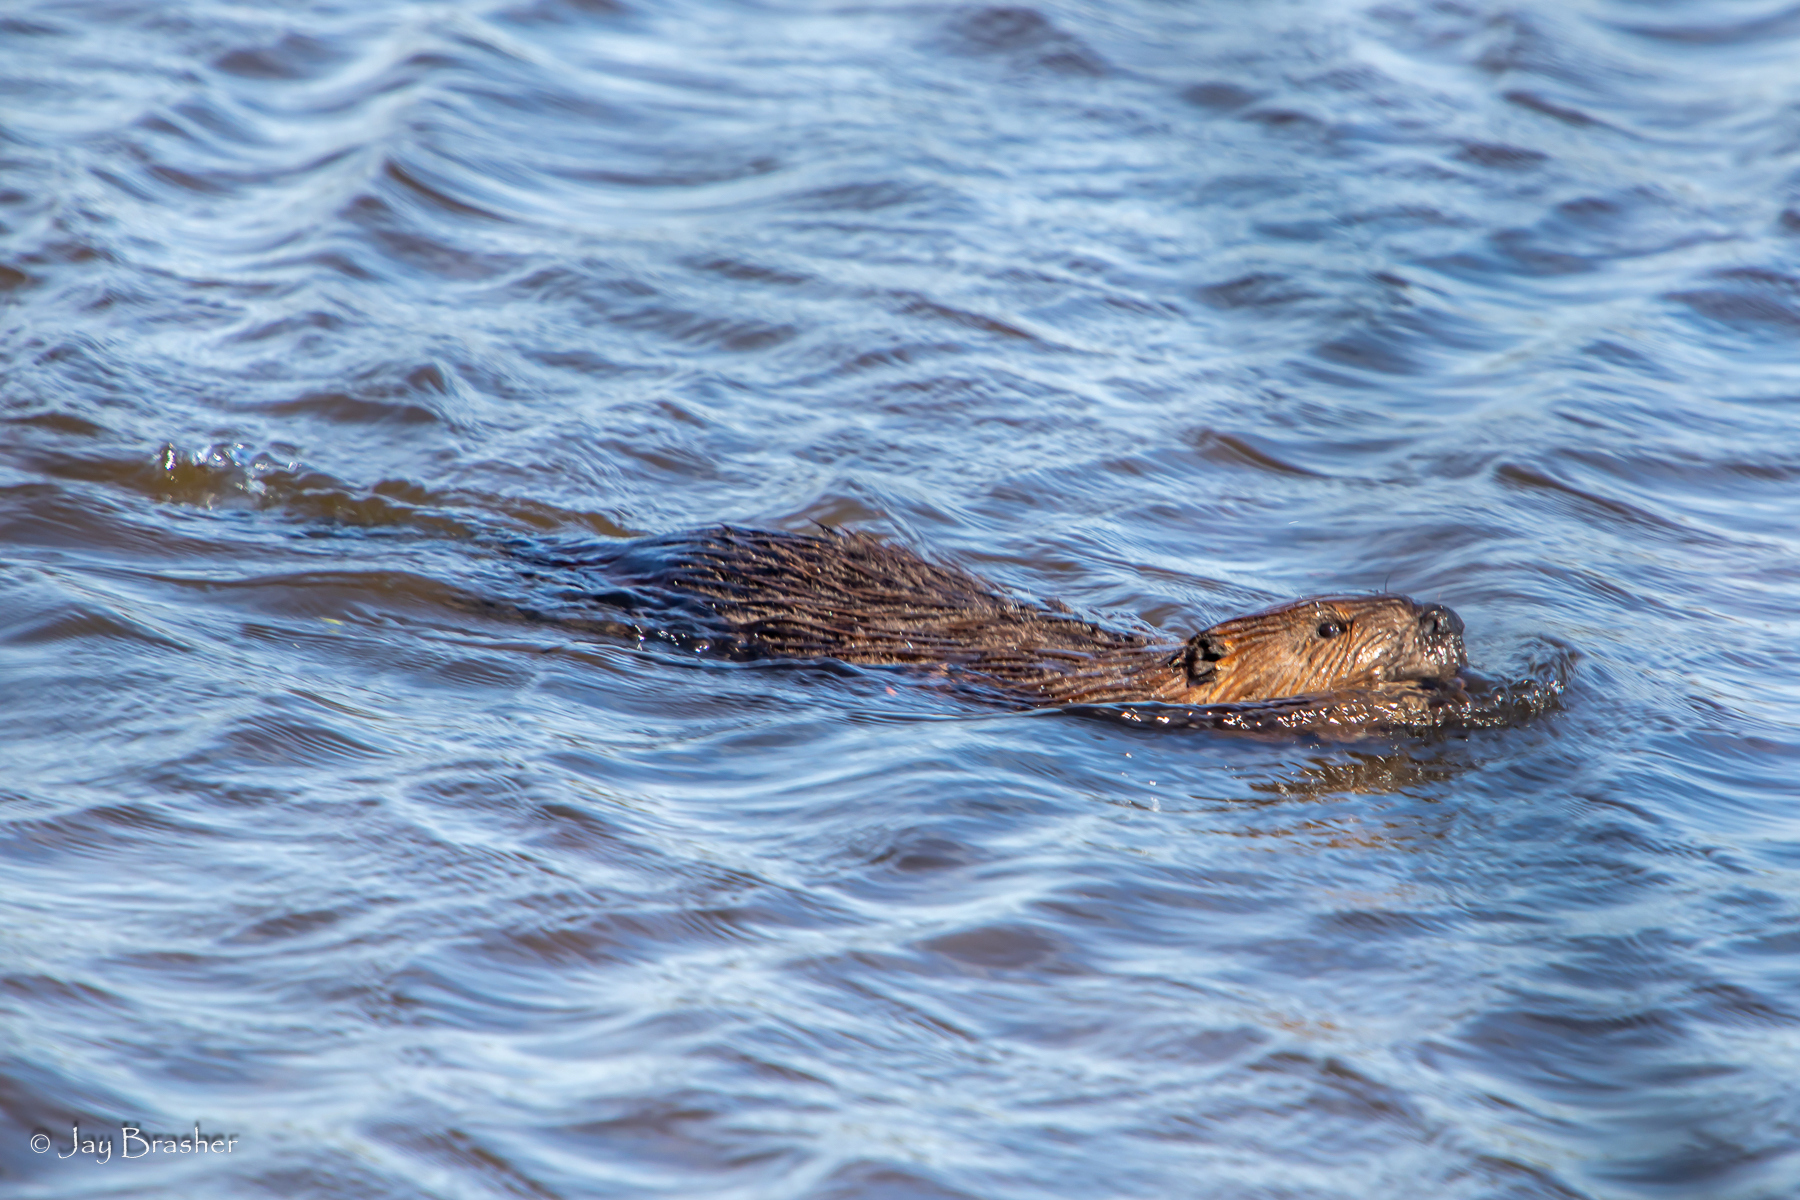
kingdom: Animalia
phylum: Chordata
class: Mammalia
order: Rodentia
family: Castoridae
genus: Castor
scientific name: Castor canadensis
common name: American beaver
